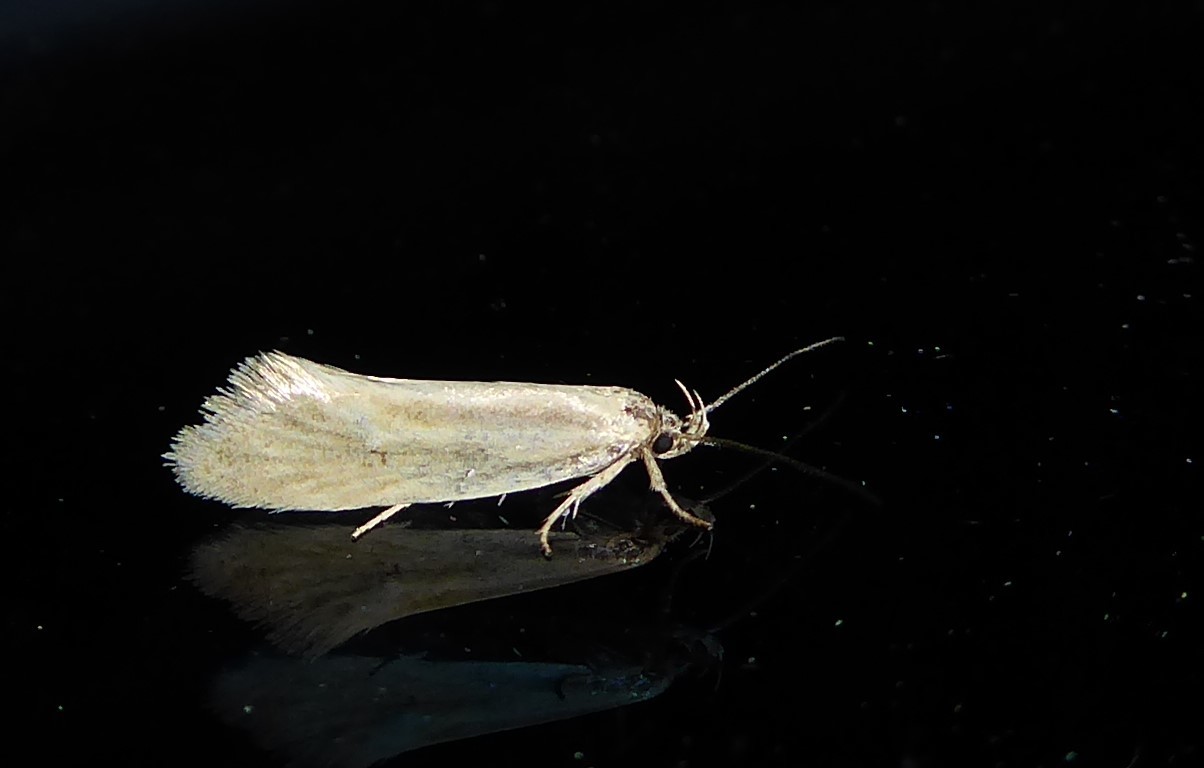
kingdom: Animalia
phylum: Arthropoda
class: Insecta
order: Lepidoptera
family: Oecophoridae
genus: Tingena
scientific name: Tingena chloradelpha
